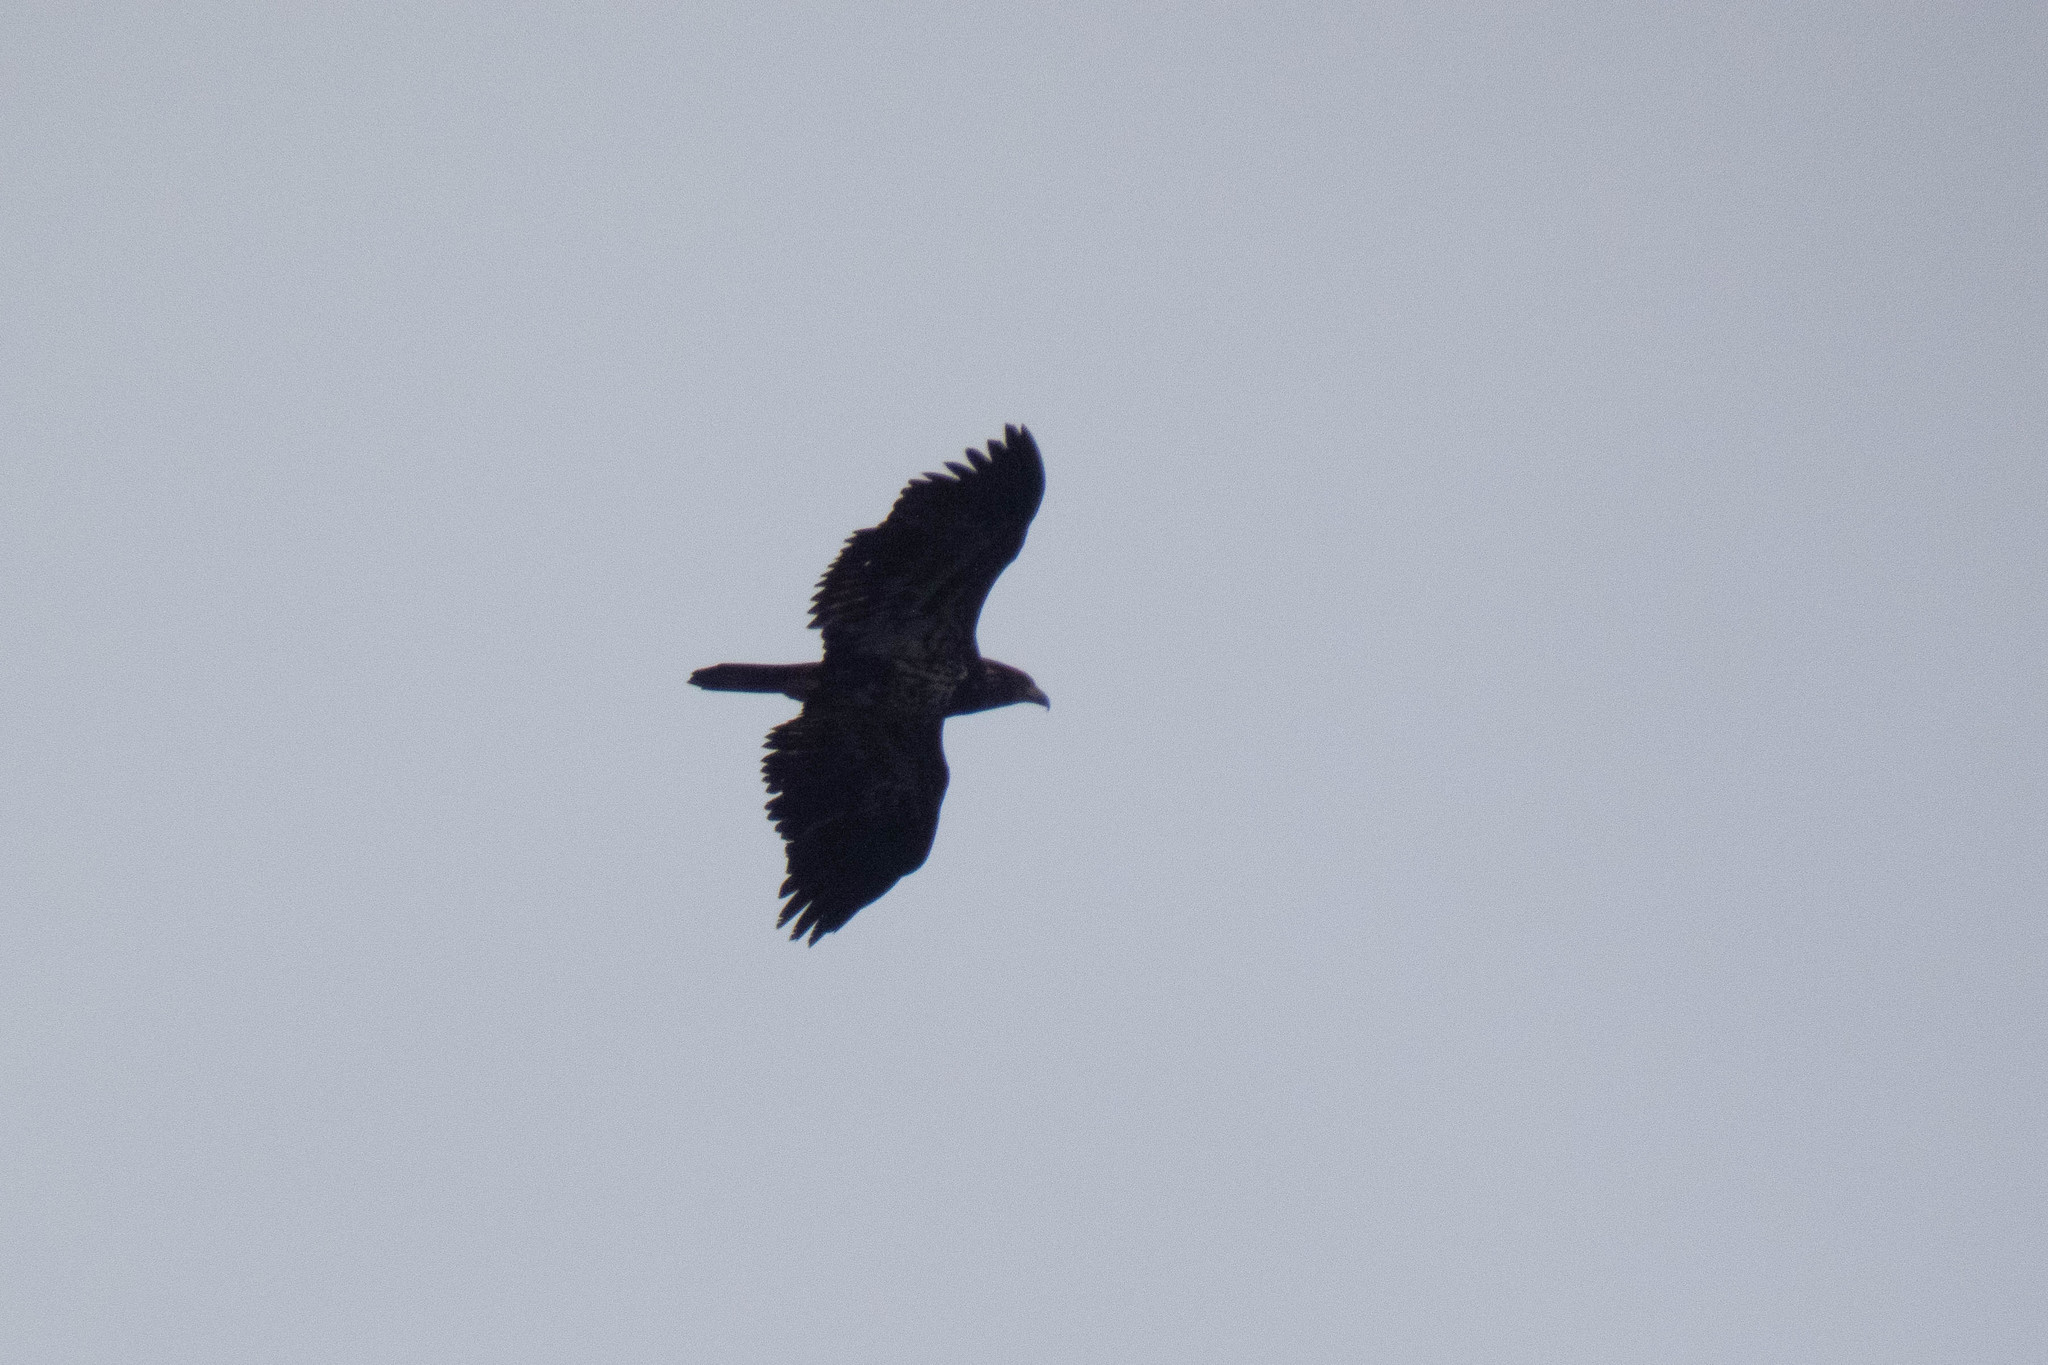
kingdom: Animalia
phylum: Chordata
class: Aves
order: Accipitriformes
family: Accipitridae
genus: Haliaeetus
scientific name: Haliaeetus leucocephalus
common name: Bald eagle
